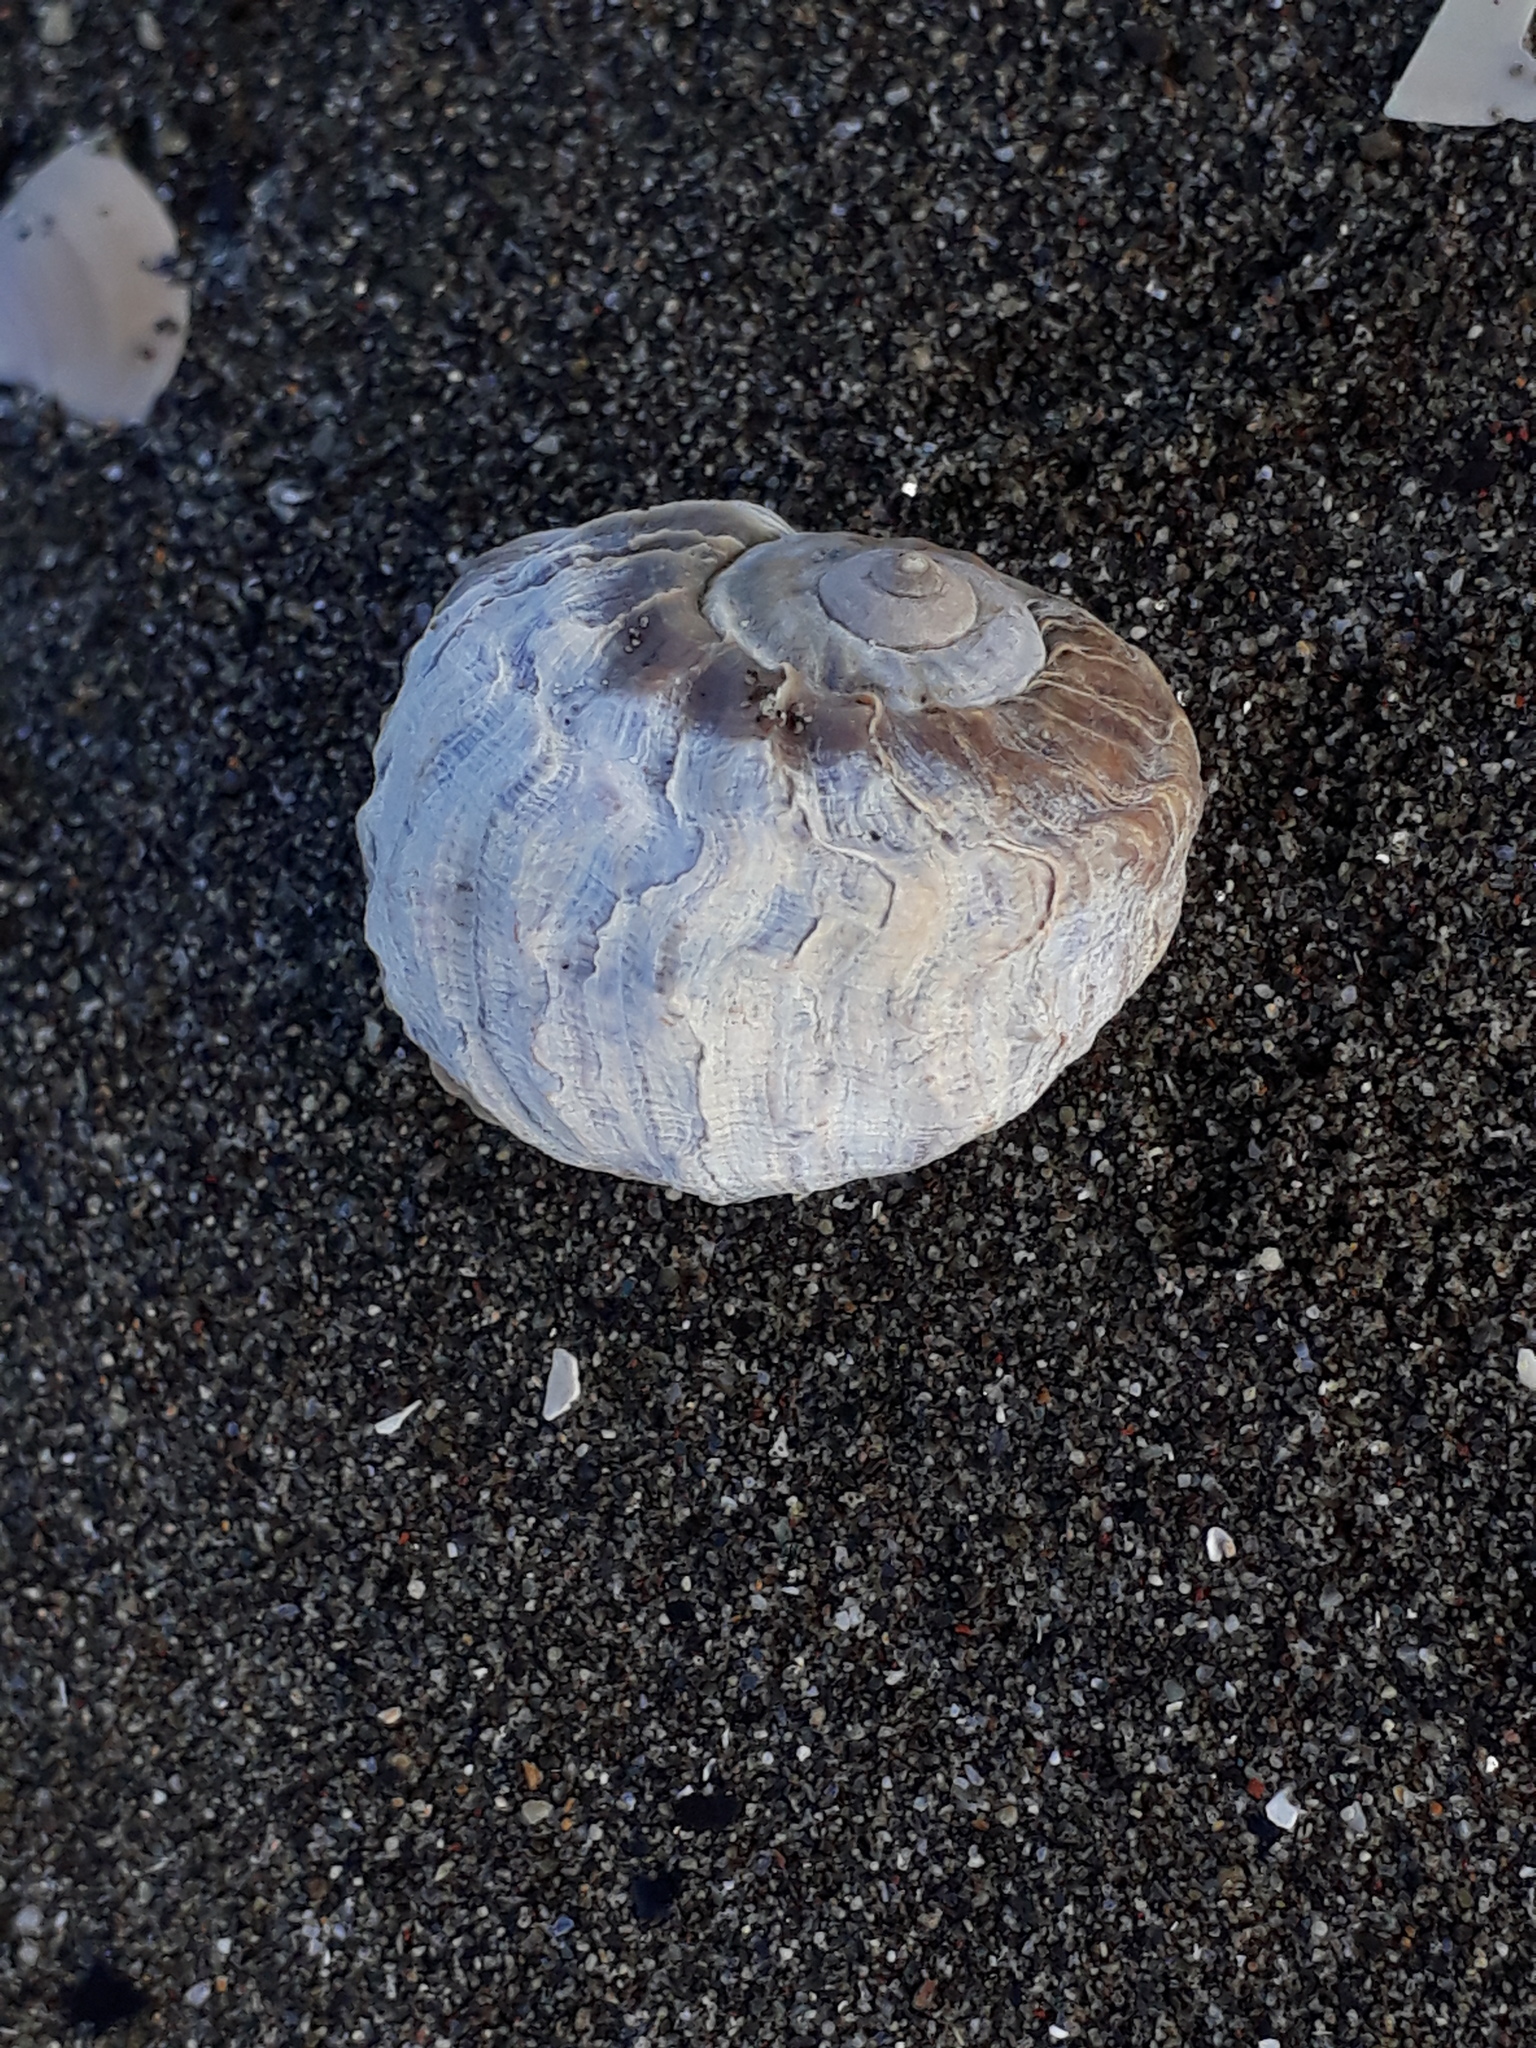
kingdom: Animalia
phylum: Mollusca
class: Gastropoda
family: Amphibolidae
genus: Amphibola
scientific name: Amphibola crenata
